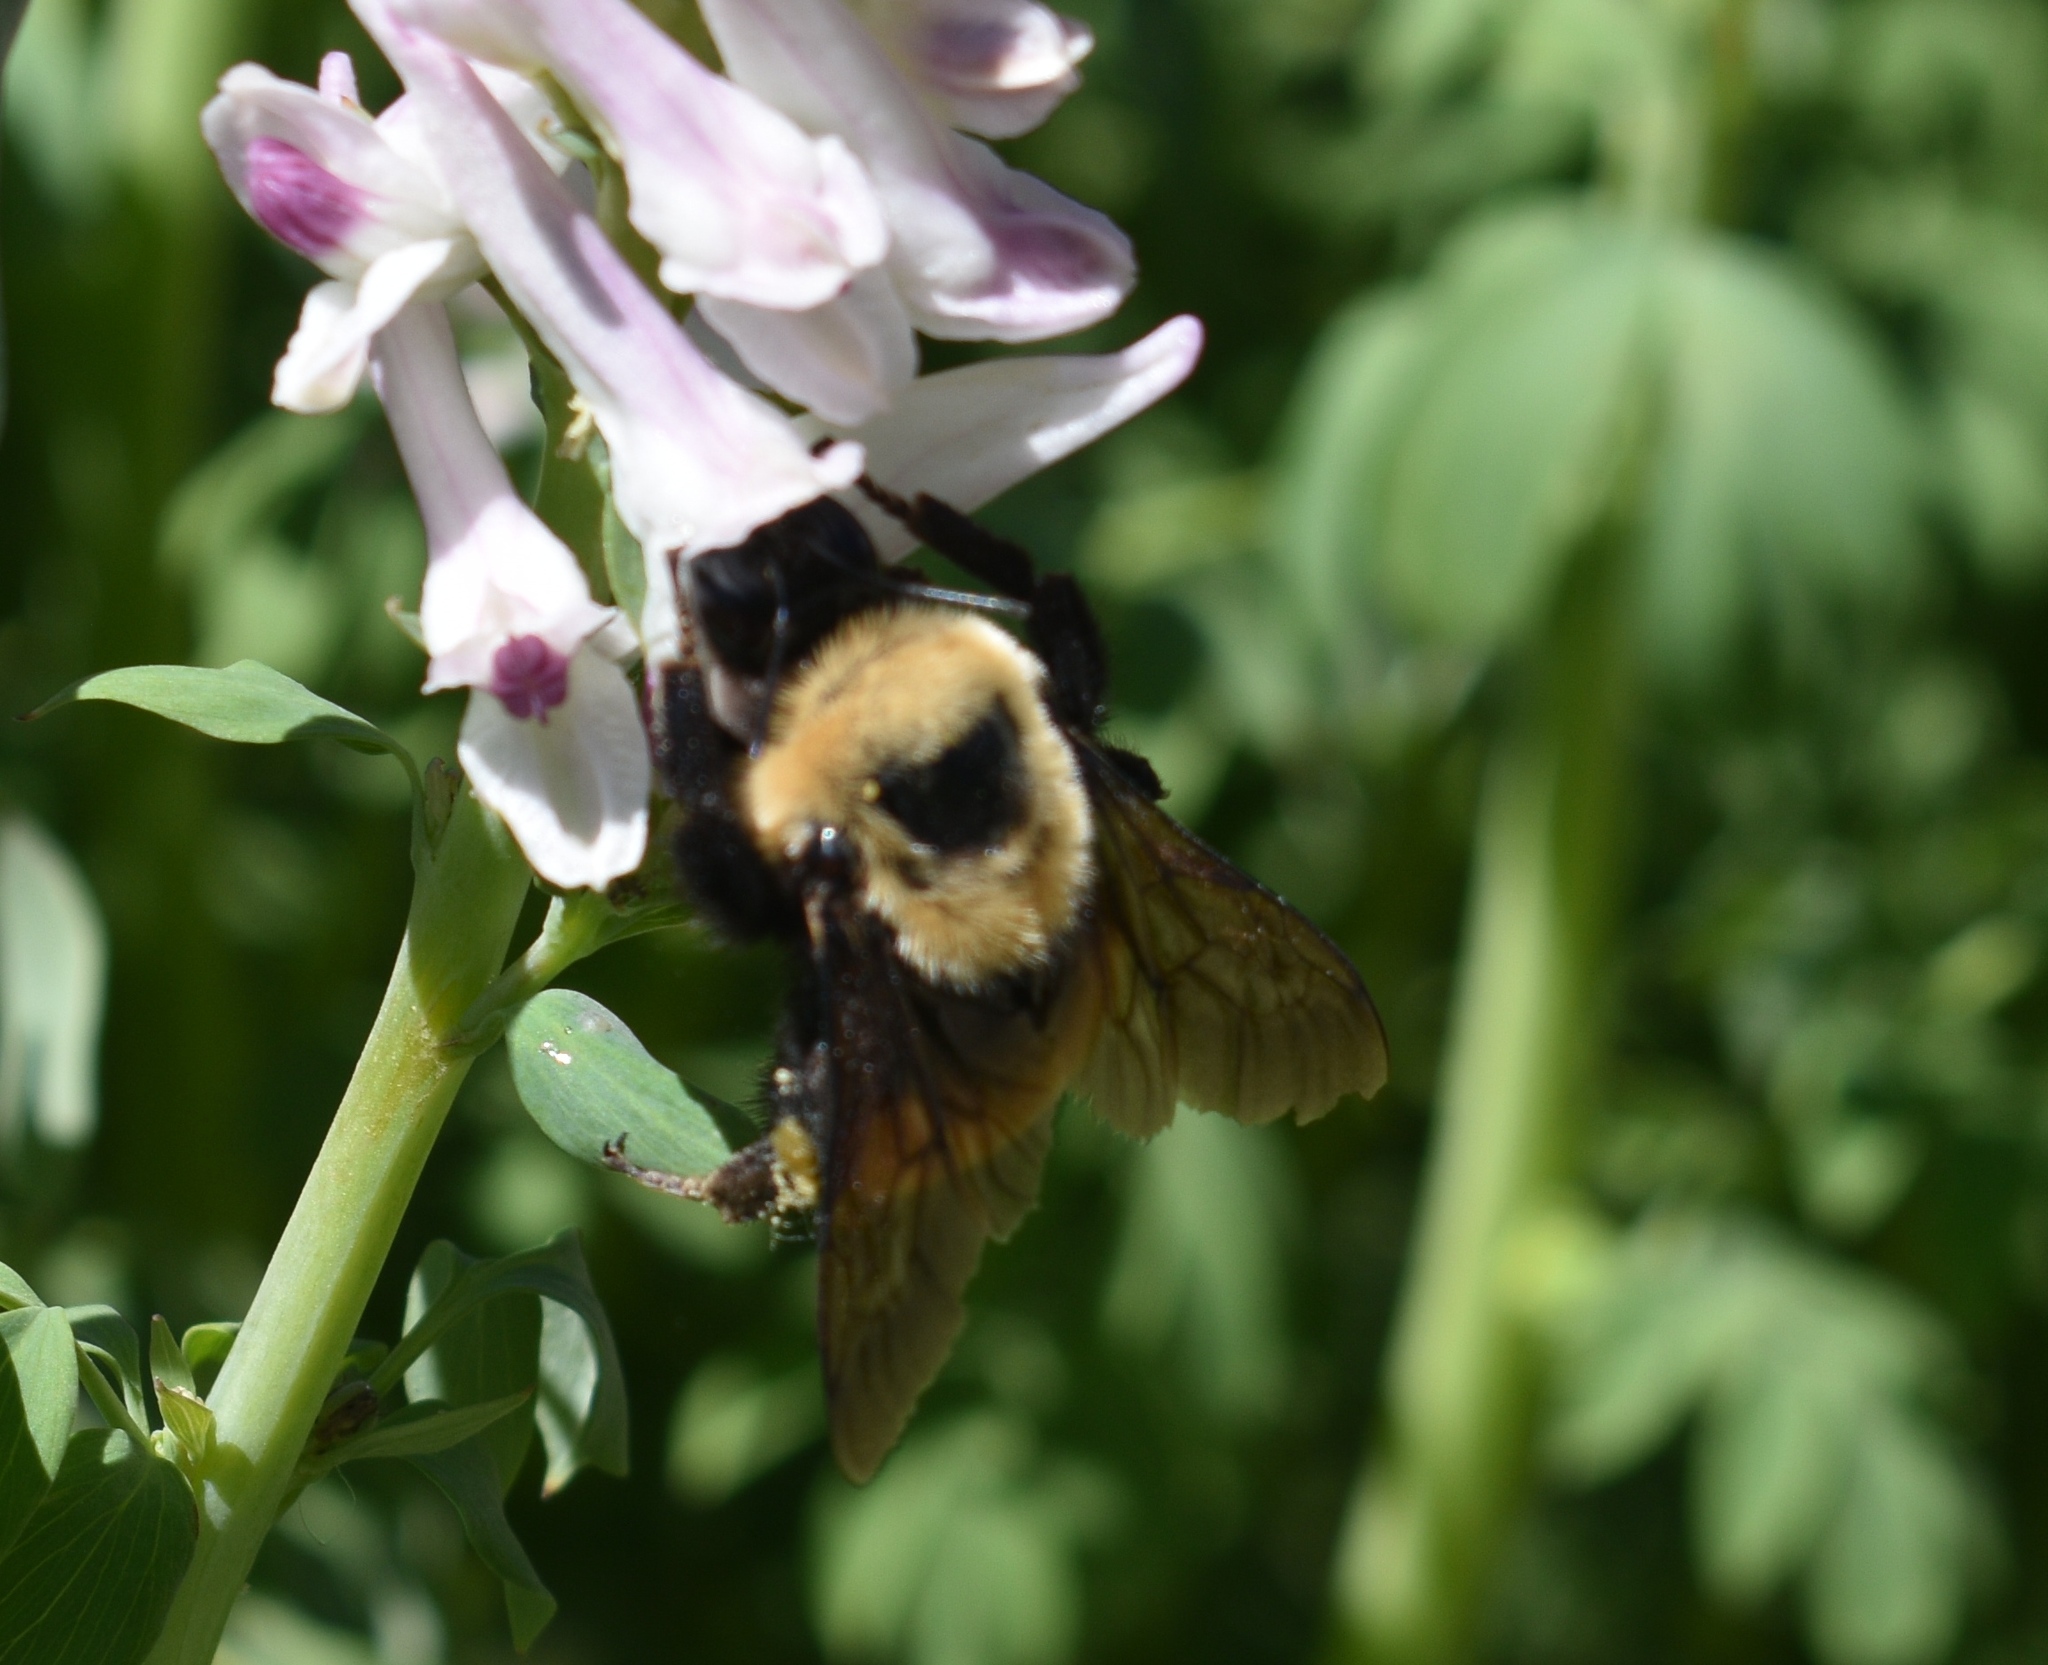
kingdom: Animalia
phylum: Arthropoda
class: Insecta
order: Hymenoptera
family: Apidae
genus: Bombus
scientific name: Bombus
